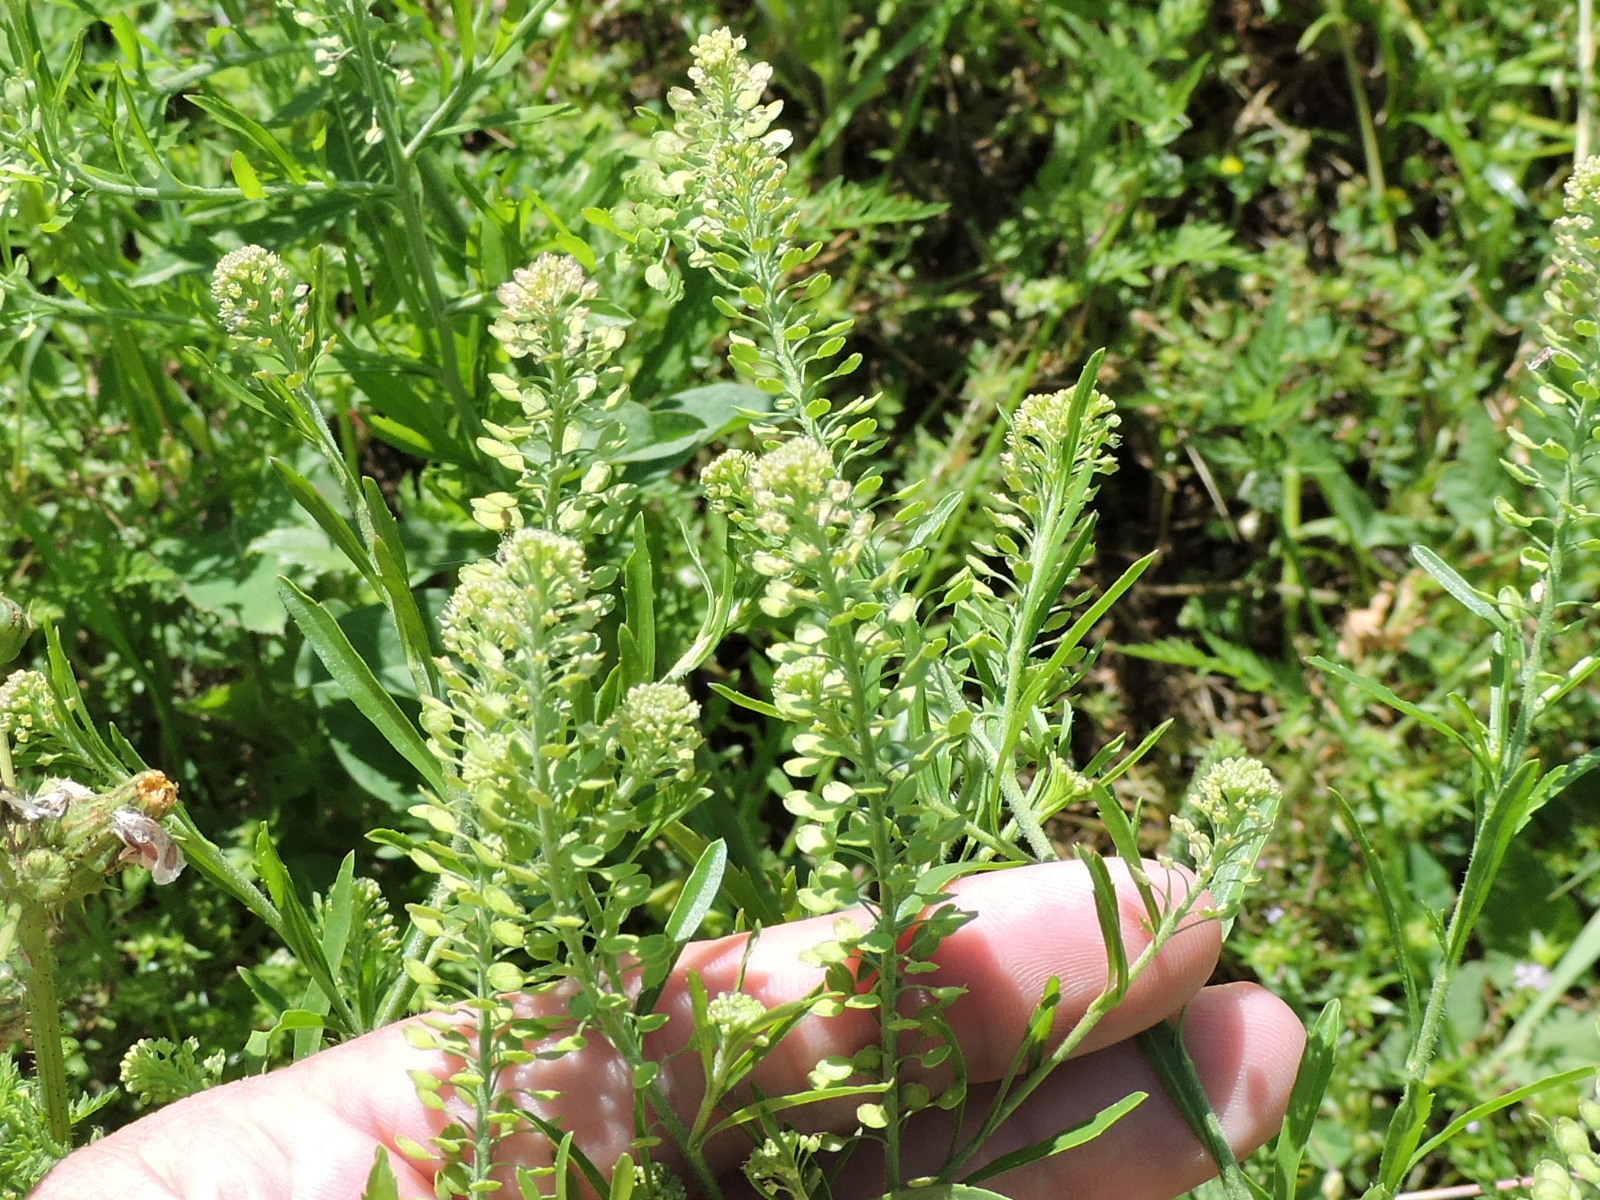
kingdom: Plantae
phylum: Tracheophyta
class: Magnoliopsida
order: Brassicales
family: Brassicaceae
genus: Lepidium
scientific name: Lepidium virginicum
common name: Least pepperwort
